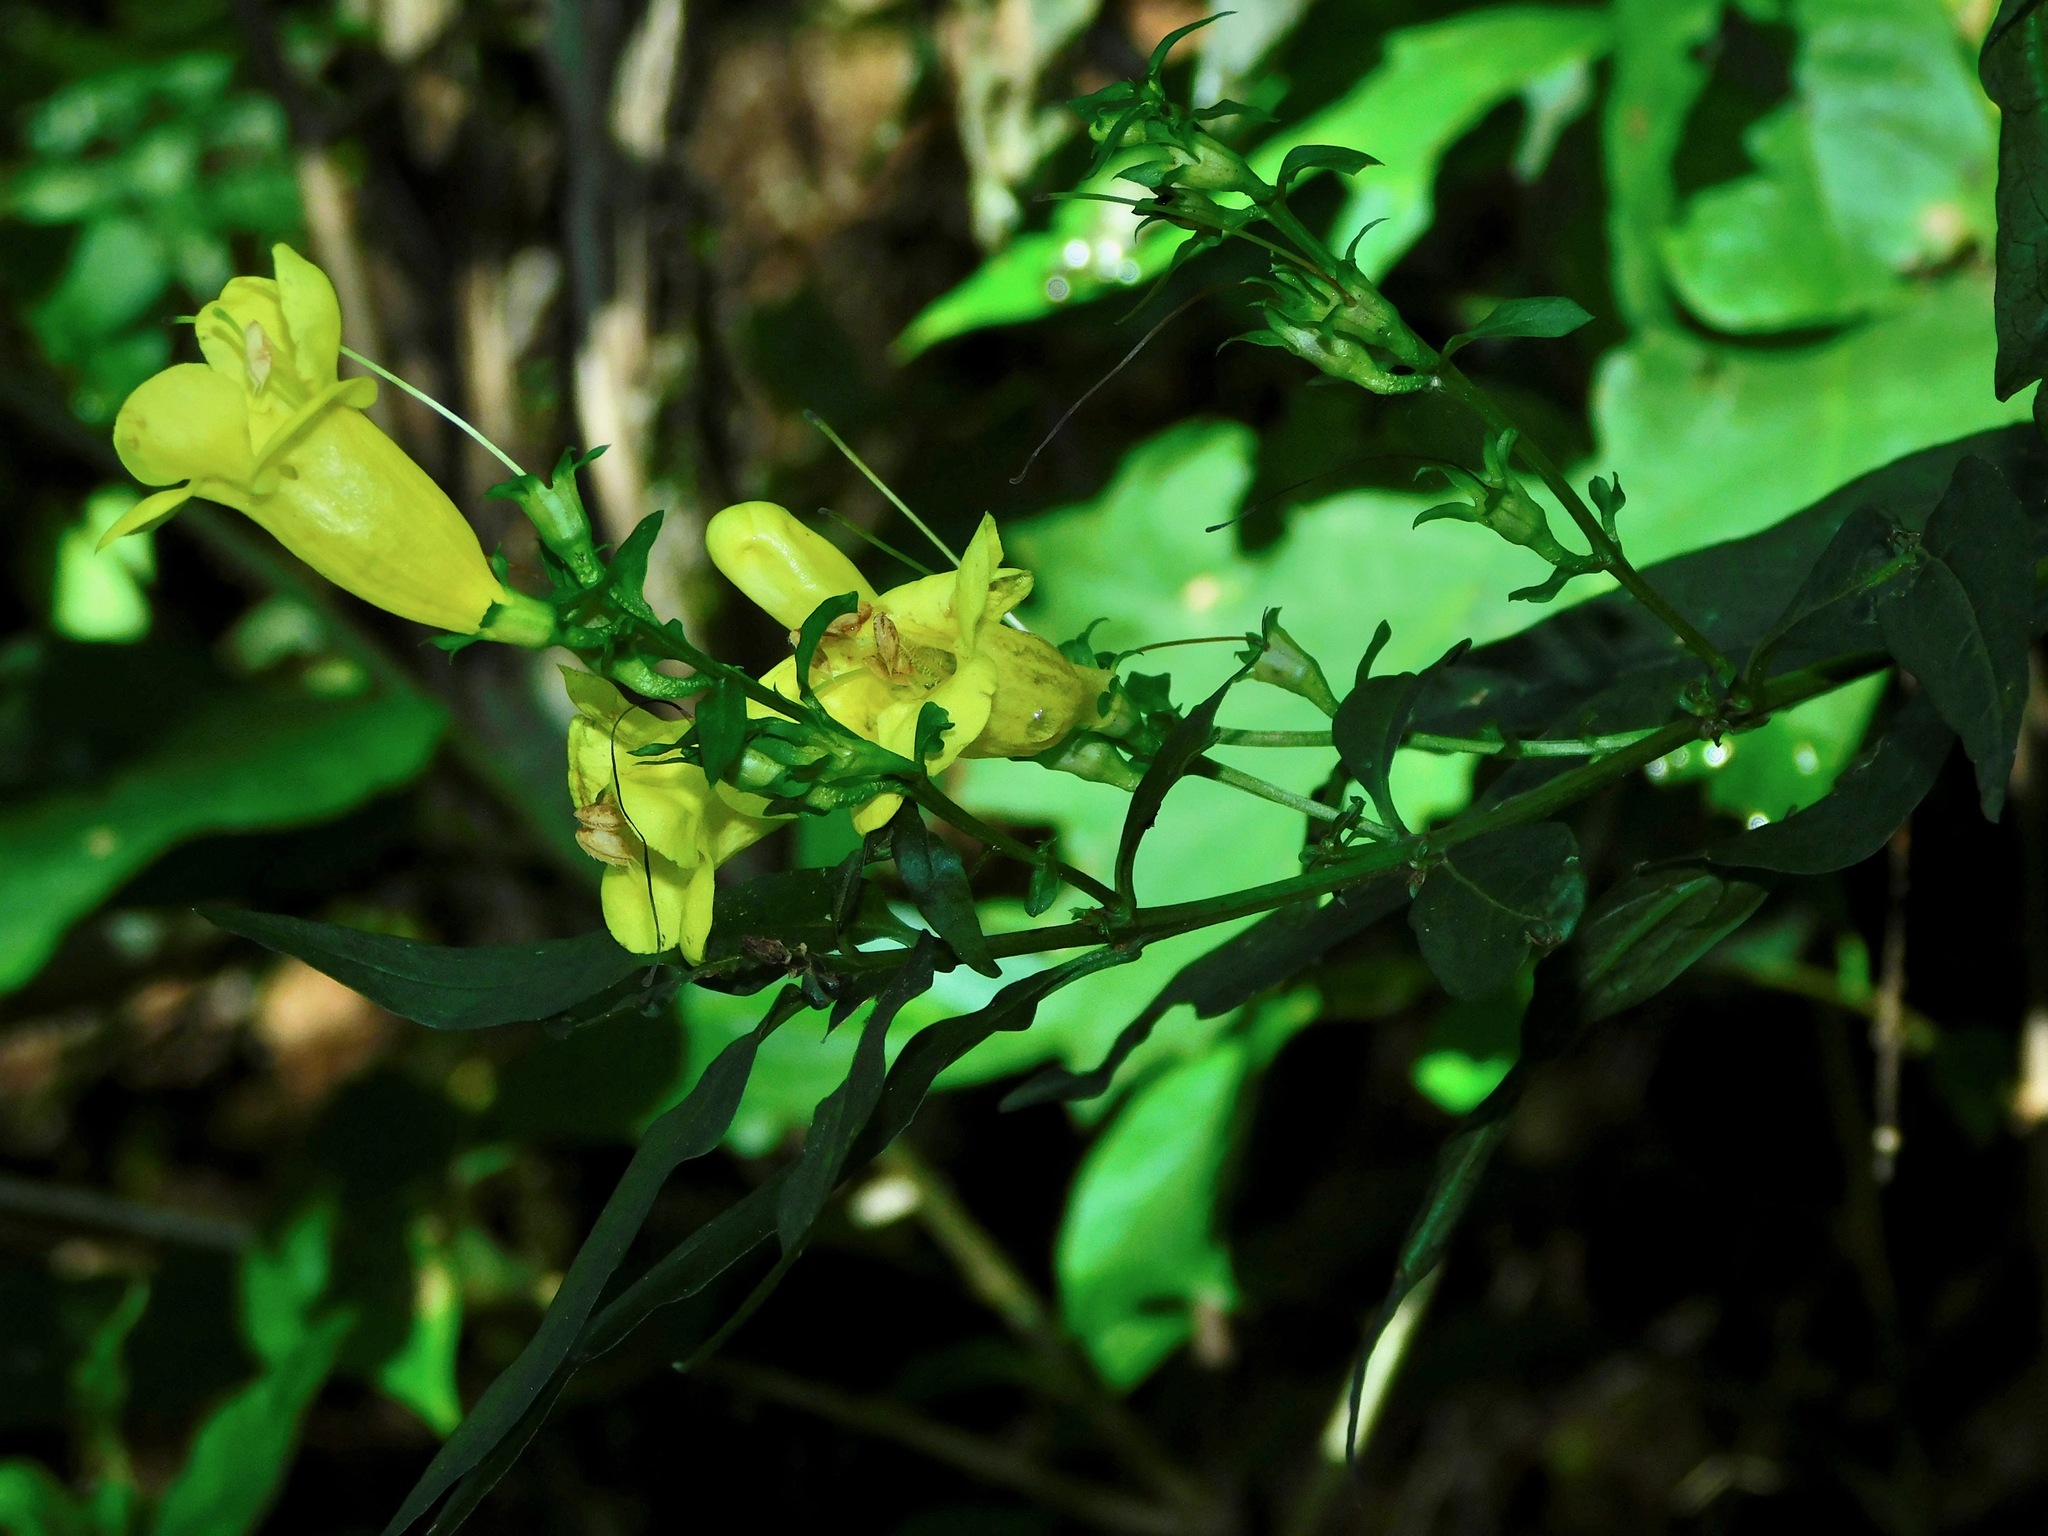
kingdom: Plantae
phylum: Tracheophyta
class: Magnoliopsida
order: Lamiales
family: Orobanchaceae
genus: Aureolaria
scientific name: Aureolaria levigata
